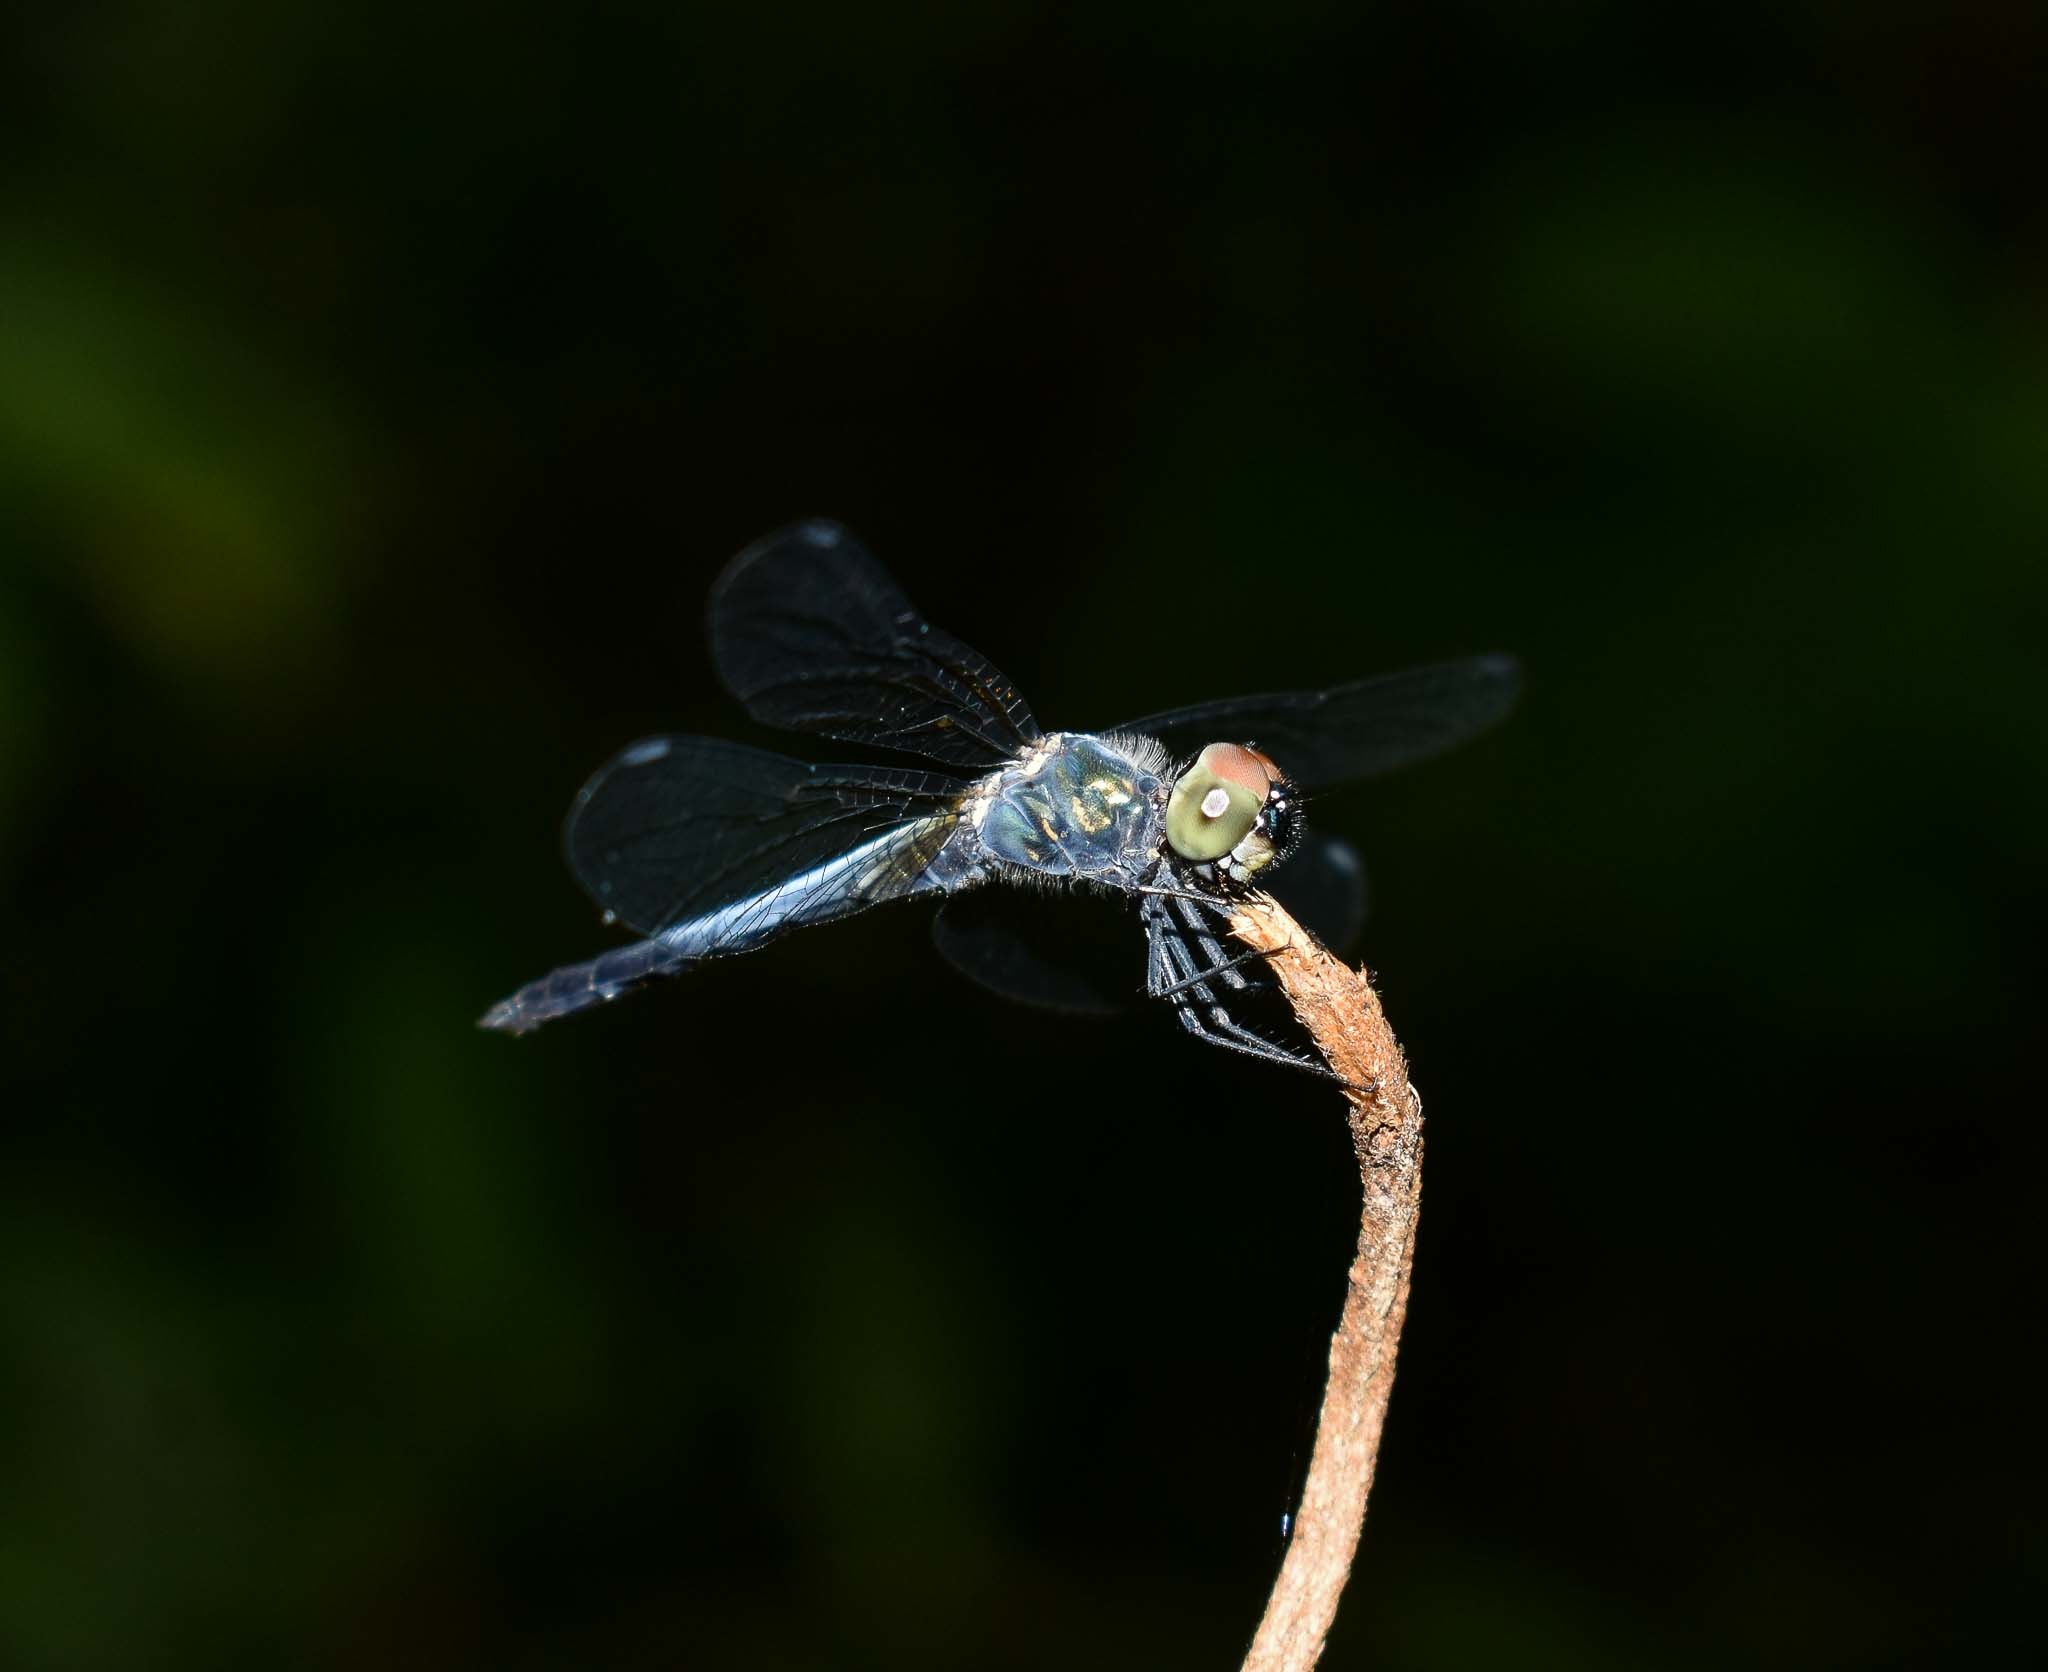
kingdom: Animalia
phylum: Arthropoda
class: Insecta
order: Odonata
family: Libellulidae
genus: Brachydiplax
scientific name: Brachydiplax sobrina
